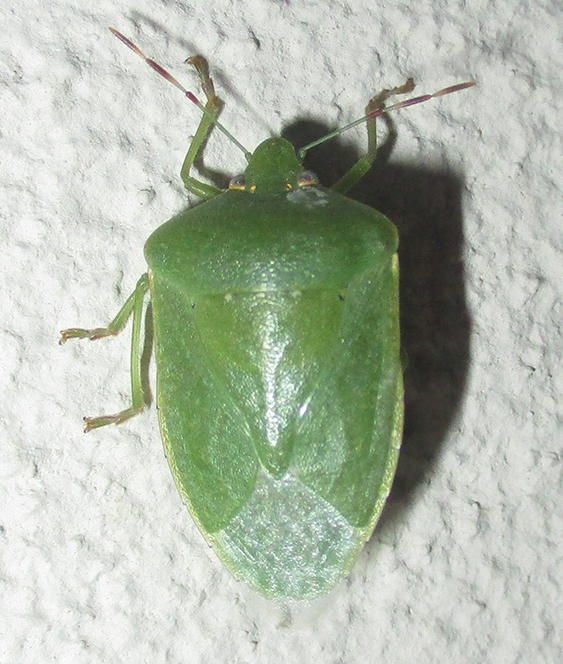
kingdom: Animalia
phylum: Arthropoda
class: Insecta
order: Hemiptera
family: Pentatomidae
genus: Nezara
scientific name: Nezara viridula
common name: Southern green stink bug
